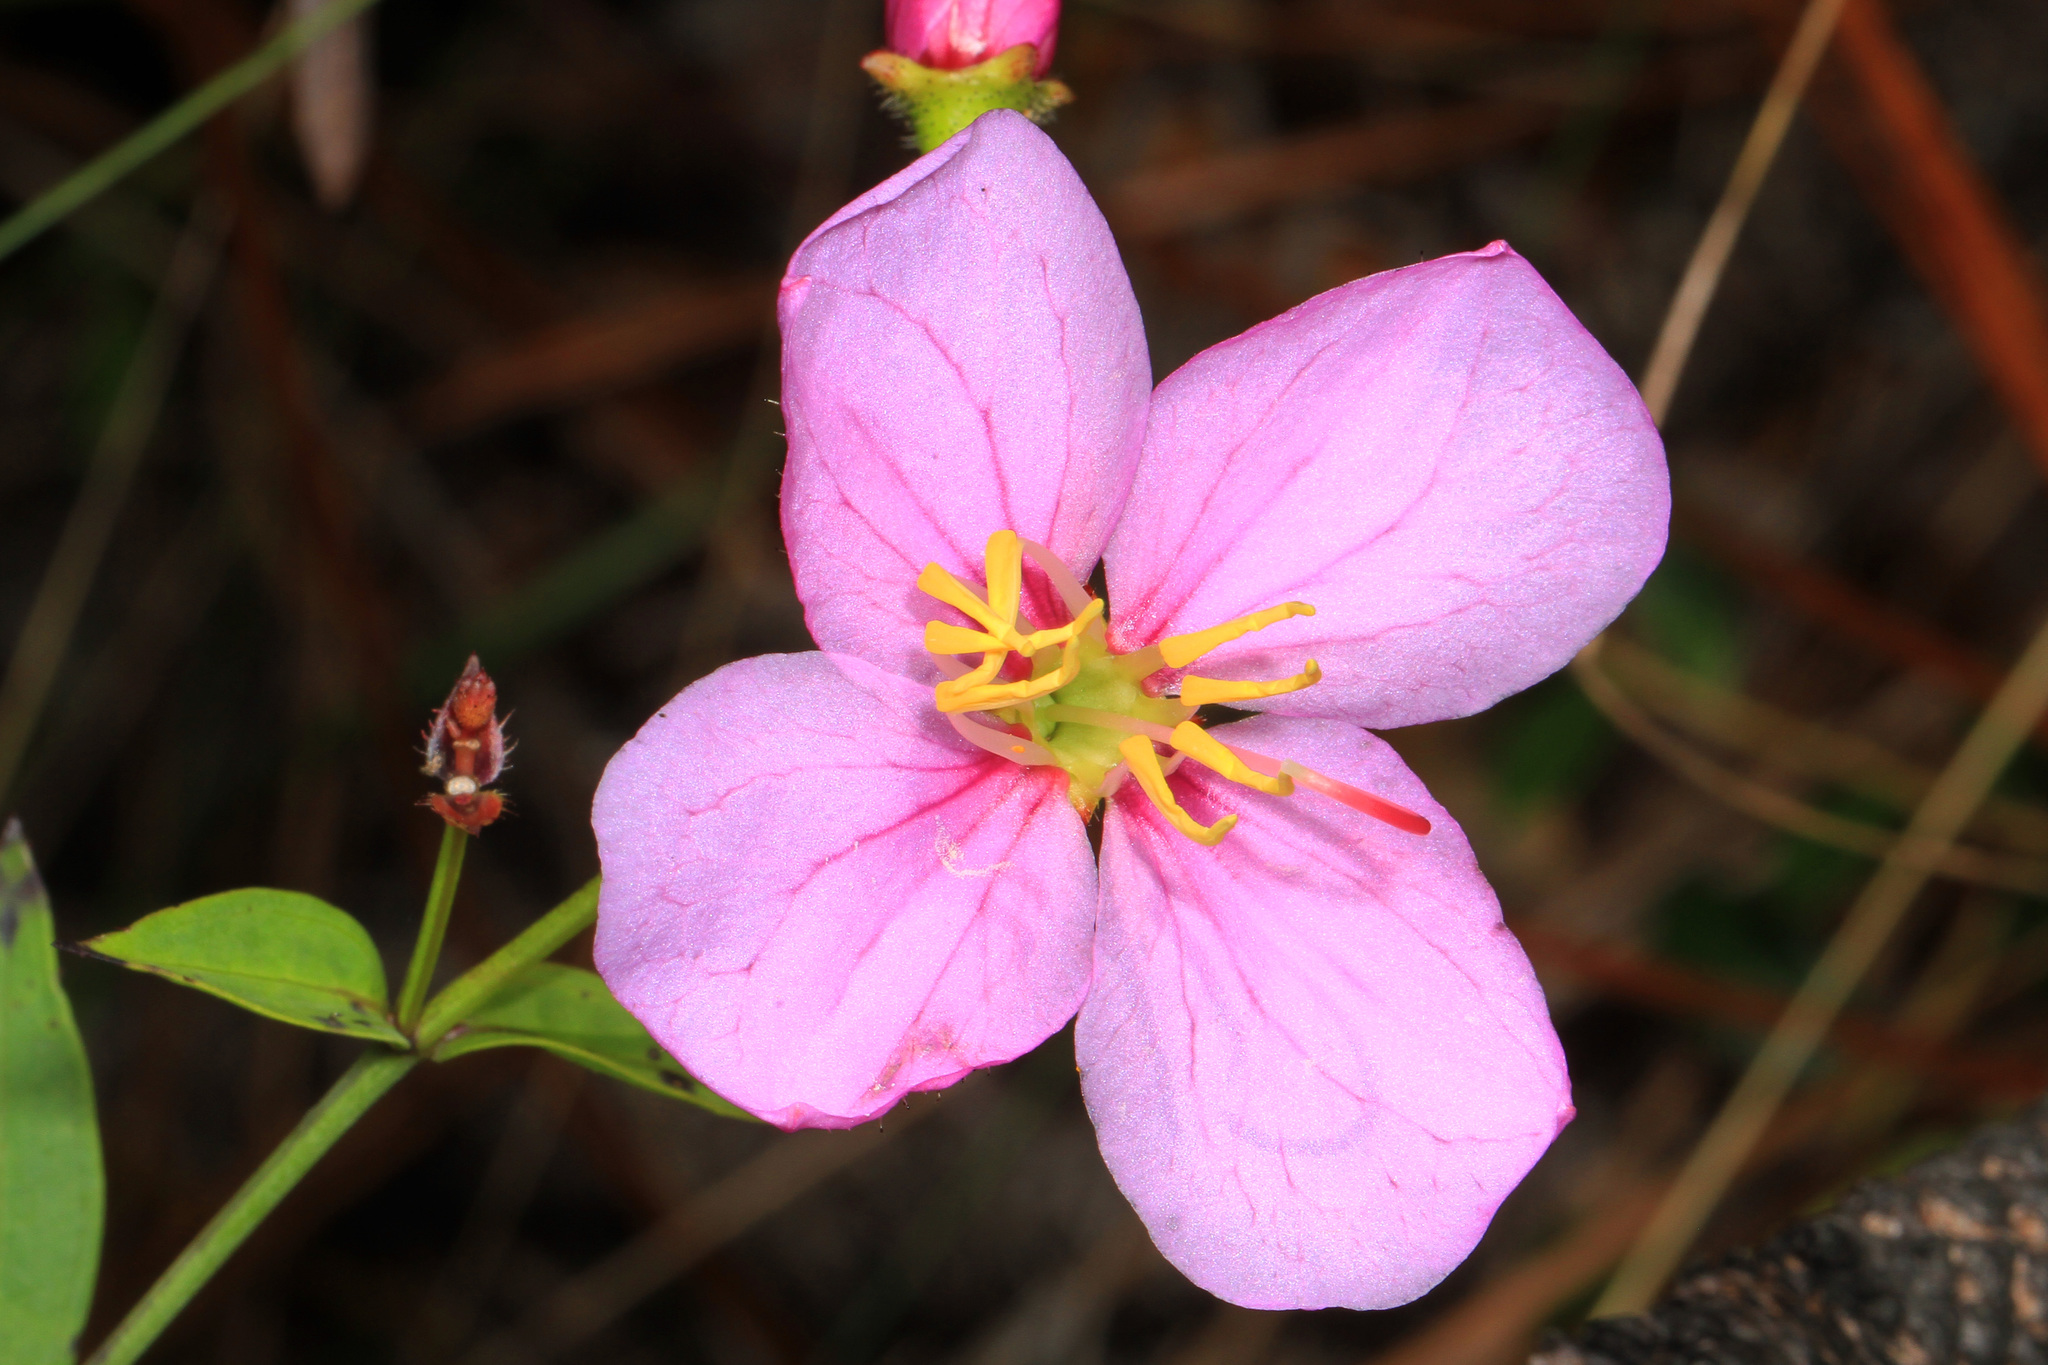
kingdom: Plantae
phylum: Tracheophyta
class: Magnoliopsida
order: Myrtales
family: Melastomataceae
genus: Rhexia
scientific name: Rhexia alifanus
